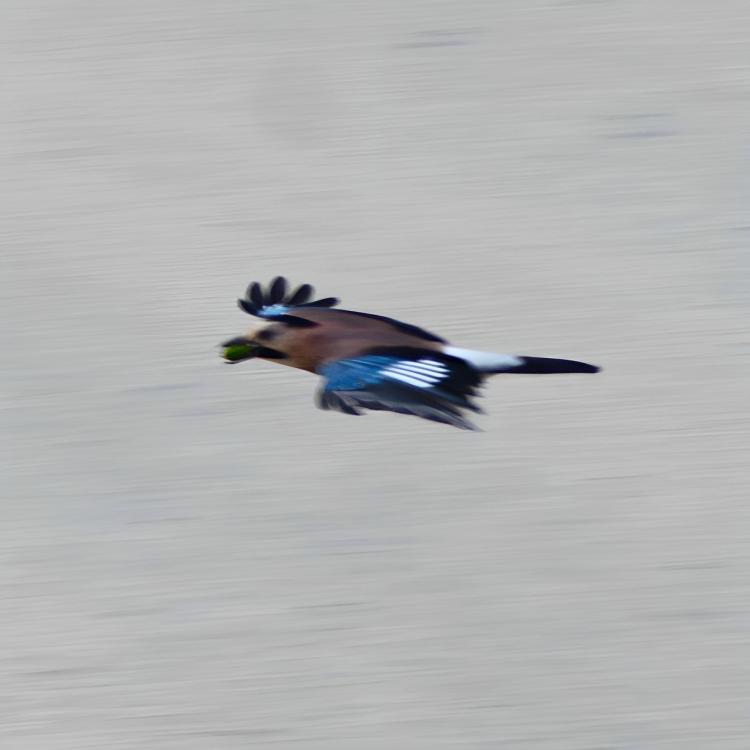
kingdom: Animalia
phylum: Chordata
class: Aves
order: Passeriformes
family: Corvidae
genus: Garrulus
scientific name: Garrulus glandarius
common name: Eurasian jay
